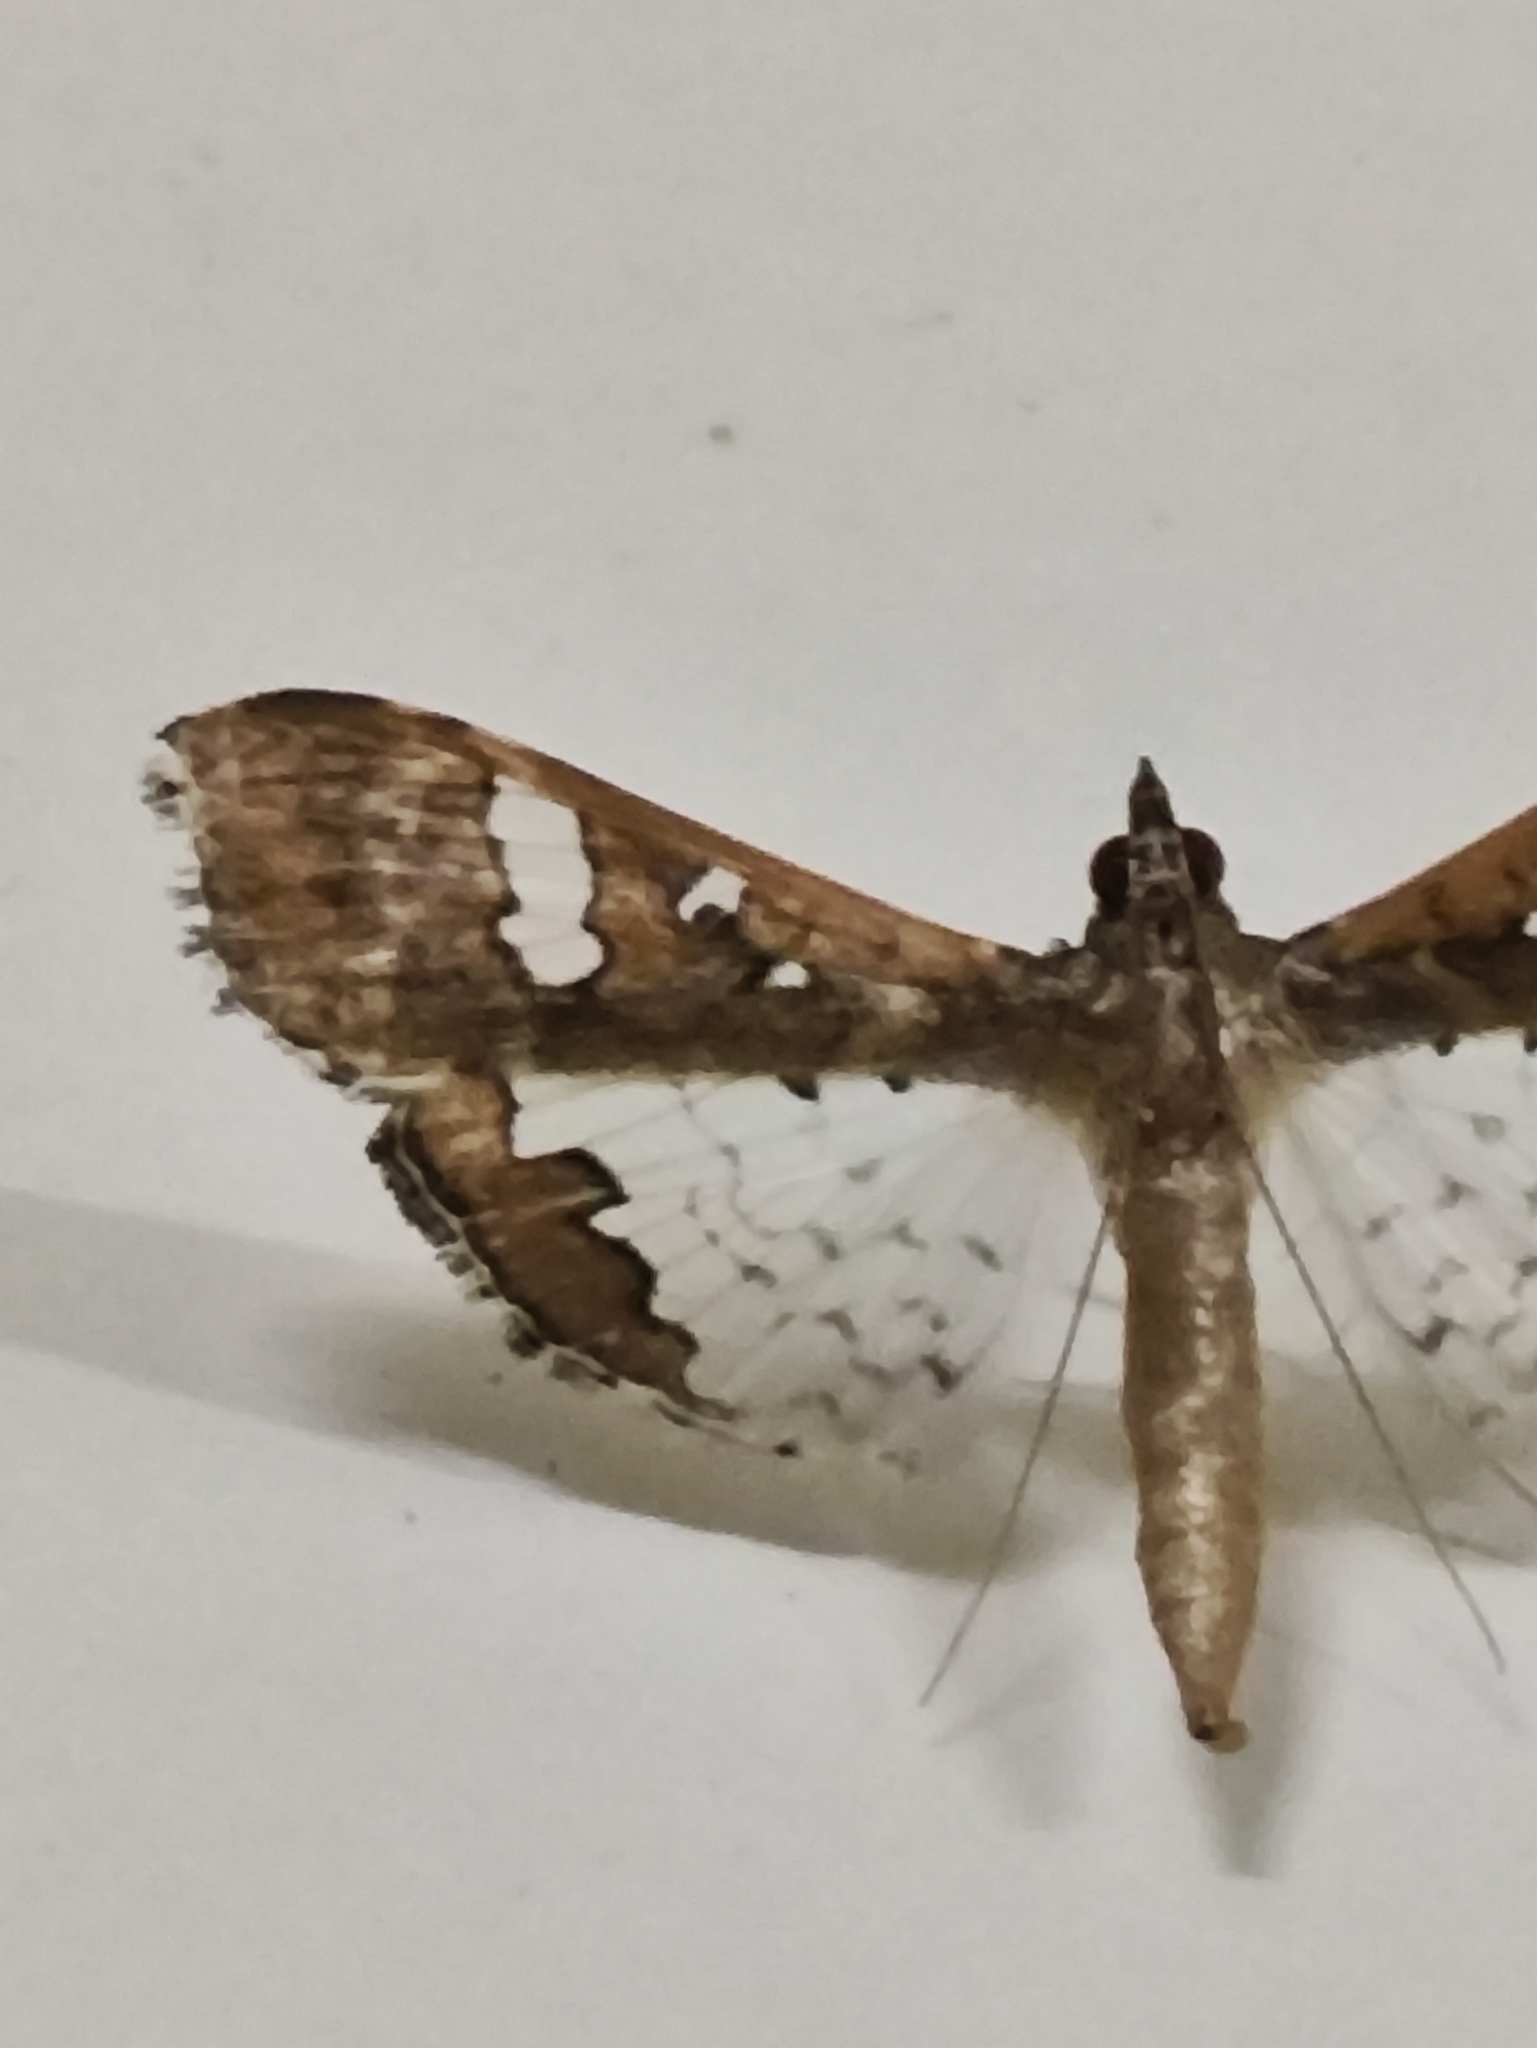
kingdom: Animalia
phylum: Arthropoda
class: Insecta
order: Lepidoptera
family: Crambidae
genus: Maruca
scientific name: Maruca vitrata
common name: Maruca pod borer
